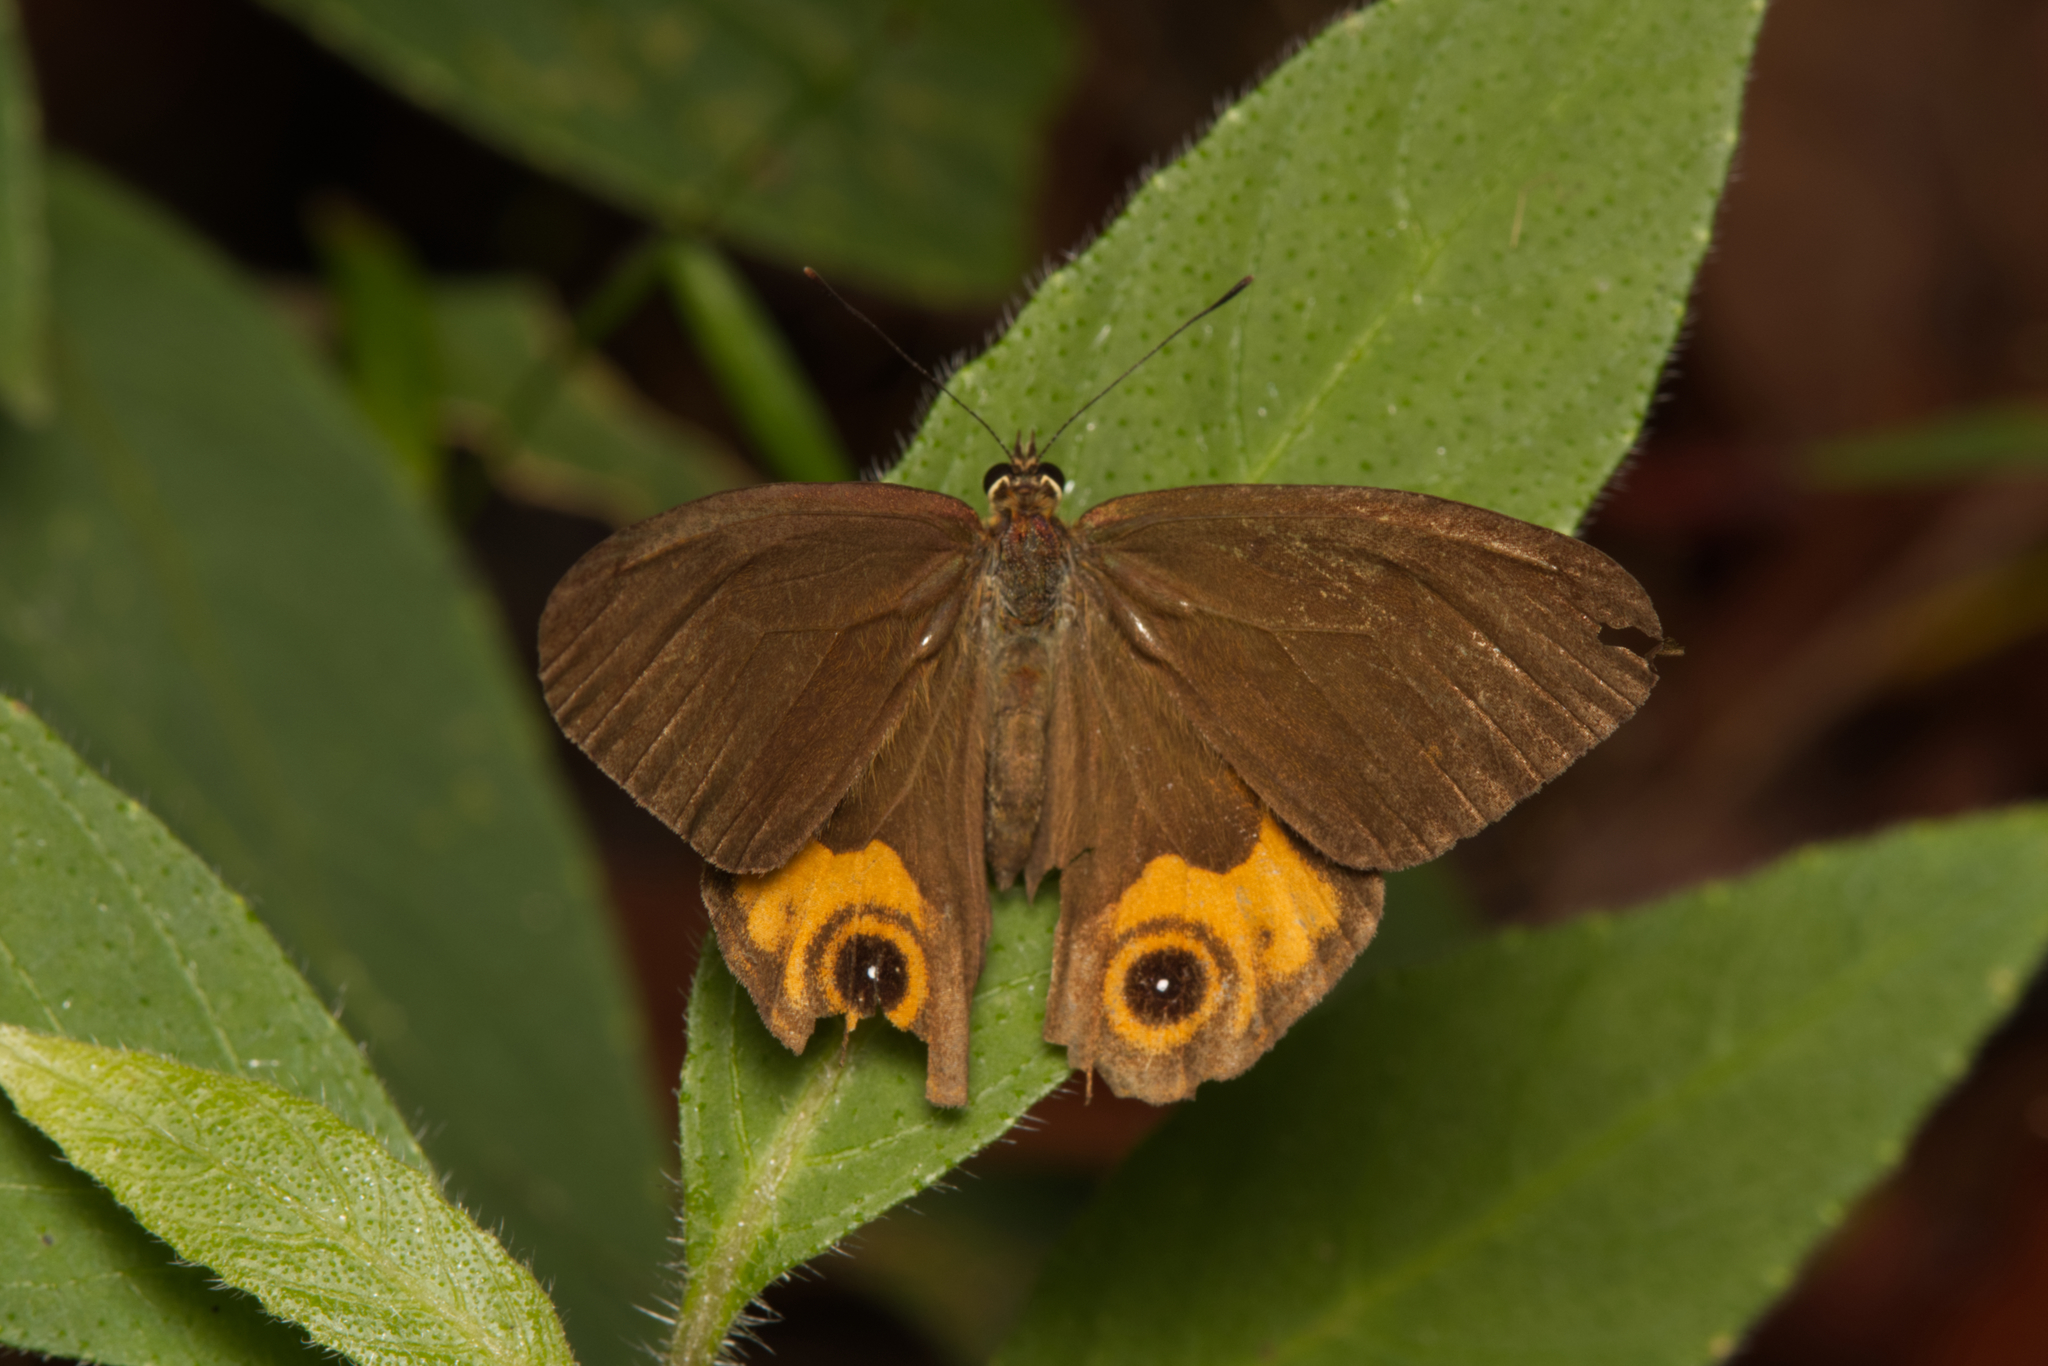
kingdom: Animalia
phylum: Arthropoda
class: Insecta
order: Lepidoptera
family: Nymphalidae
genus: Hypocysta
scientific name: Hypocysta metirius
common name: Brown ringlet
